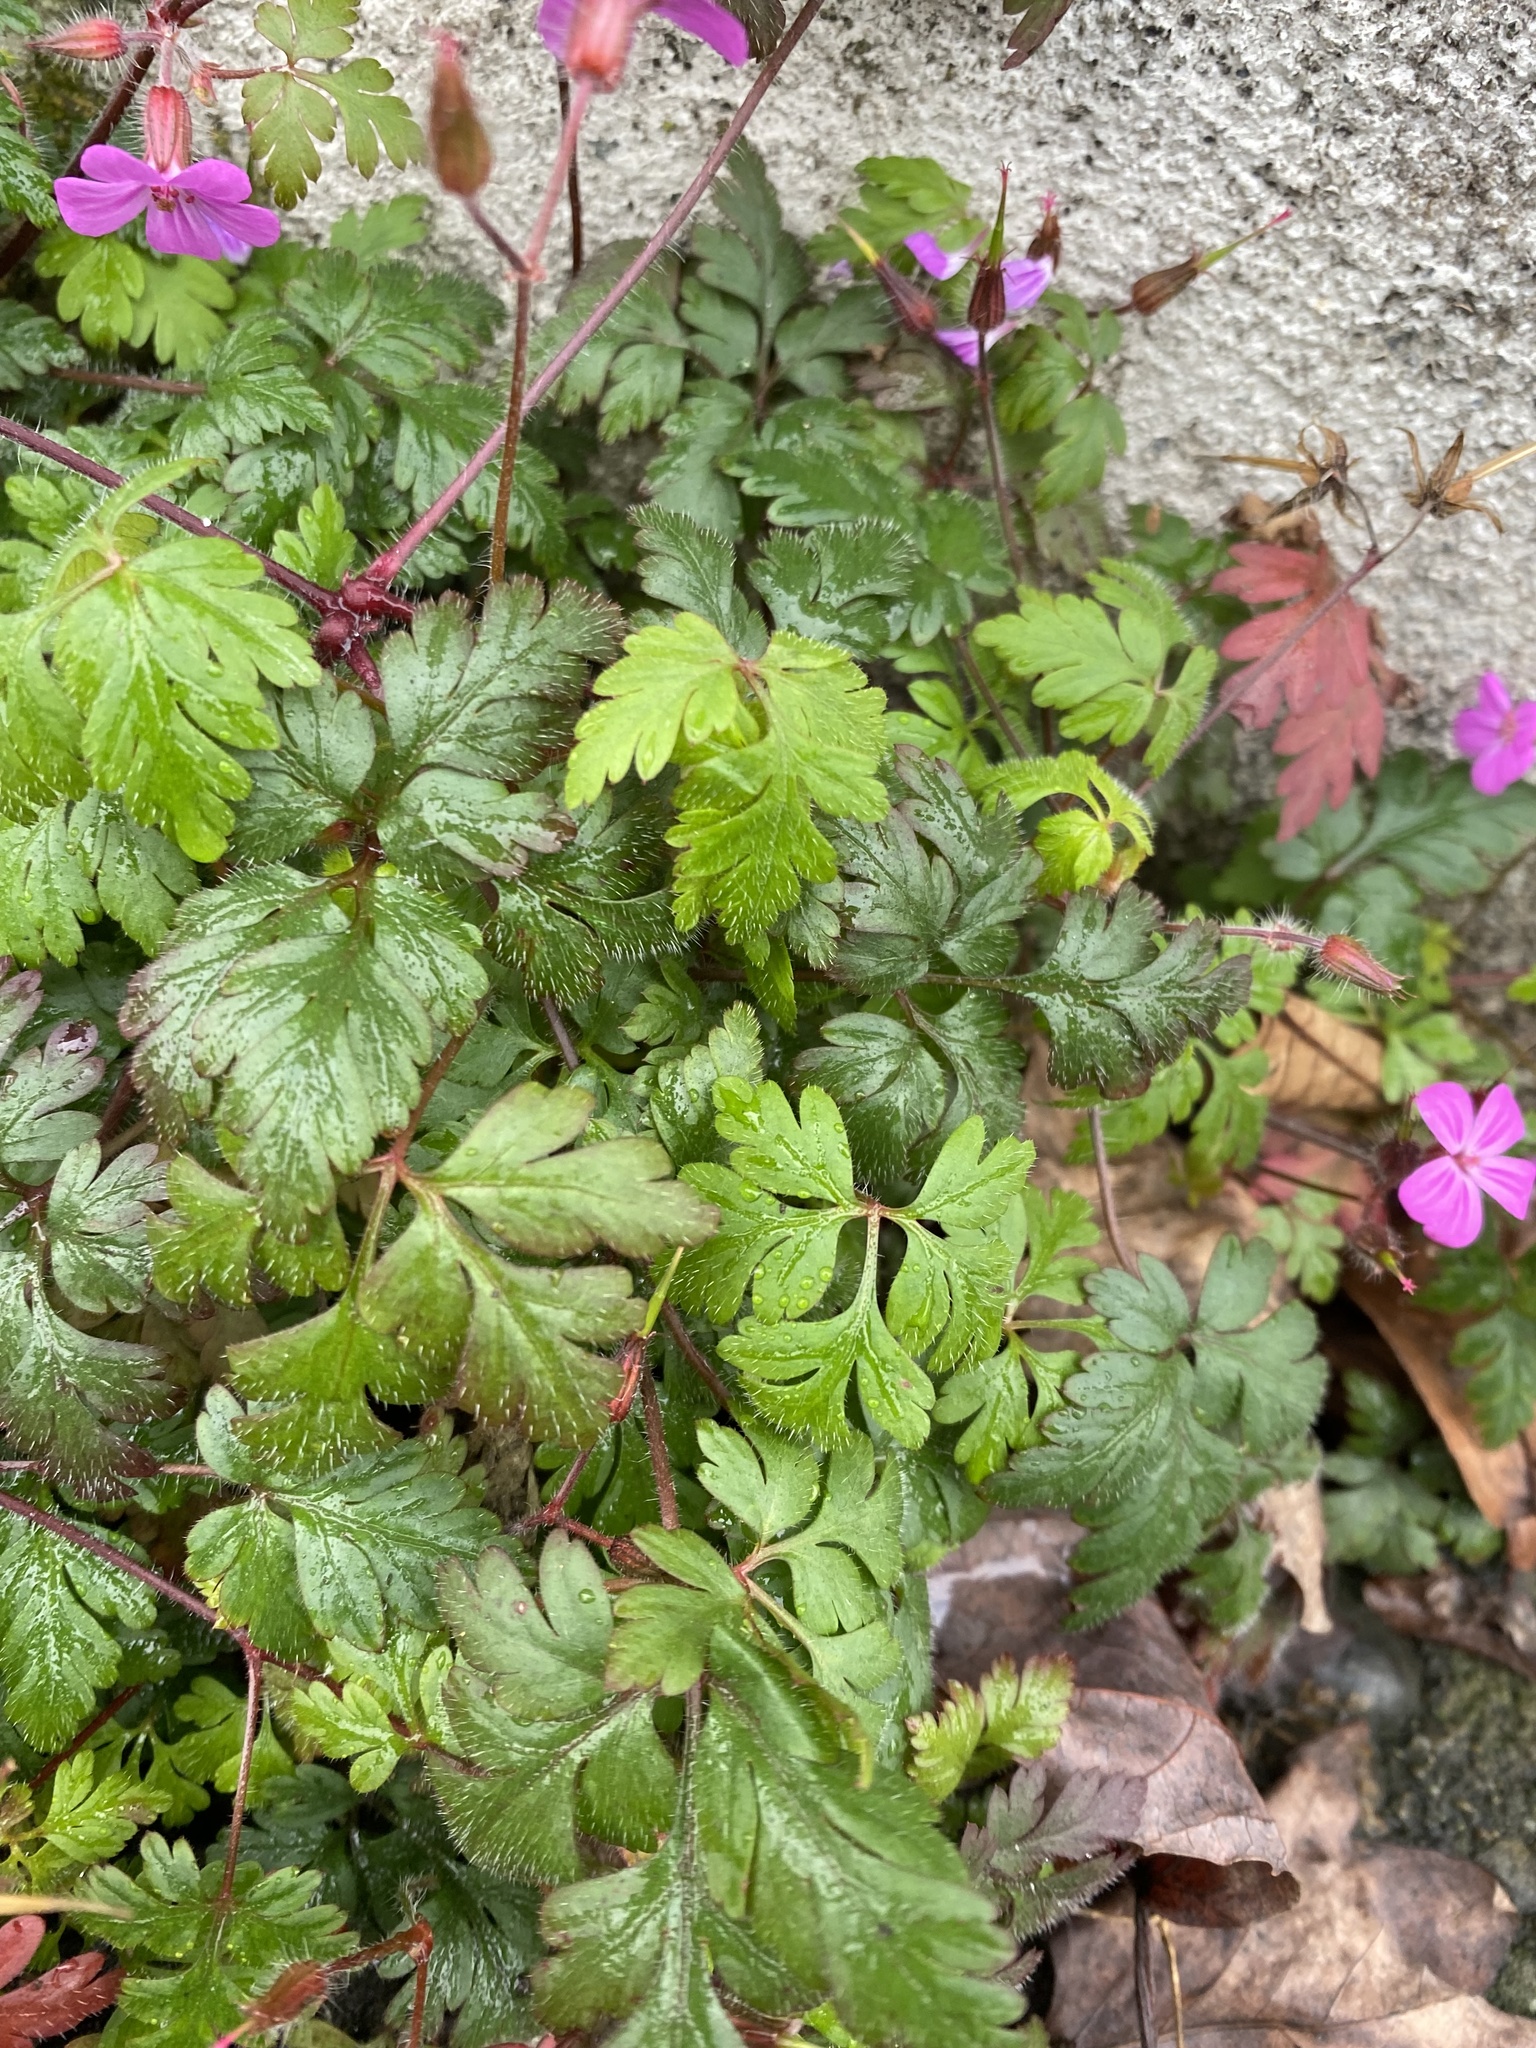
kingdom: Plantae
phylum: Tracheophyta
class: Magnoliopsida
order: Geraniales
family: Geraniaceae
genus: Geranium
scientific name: Geranium robertianum
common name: Herb-robert
